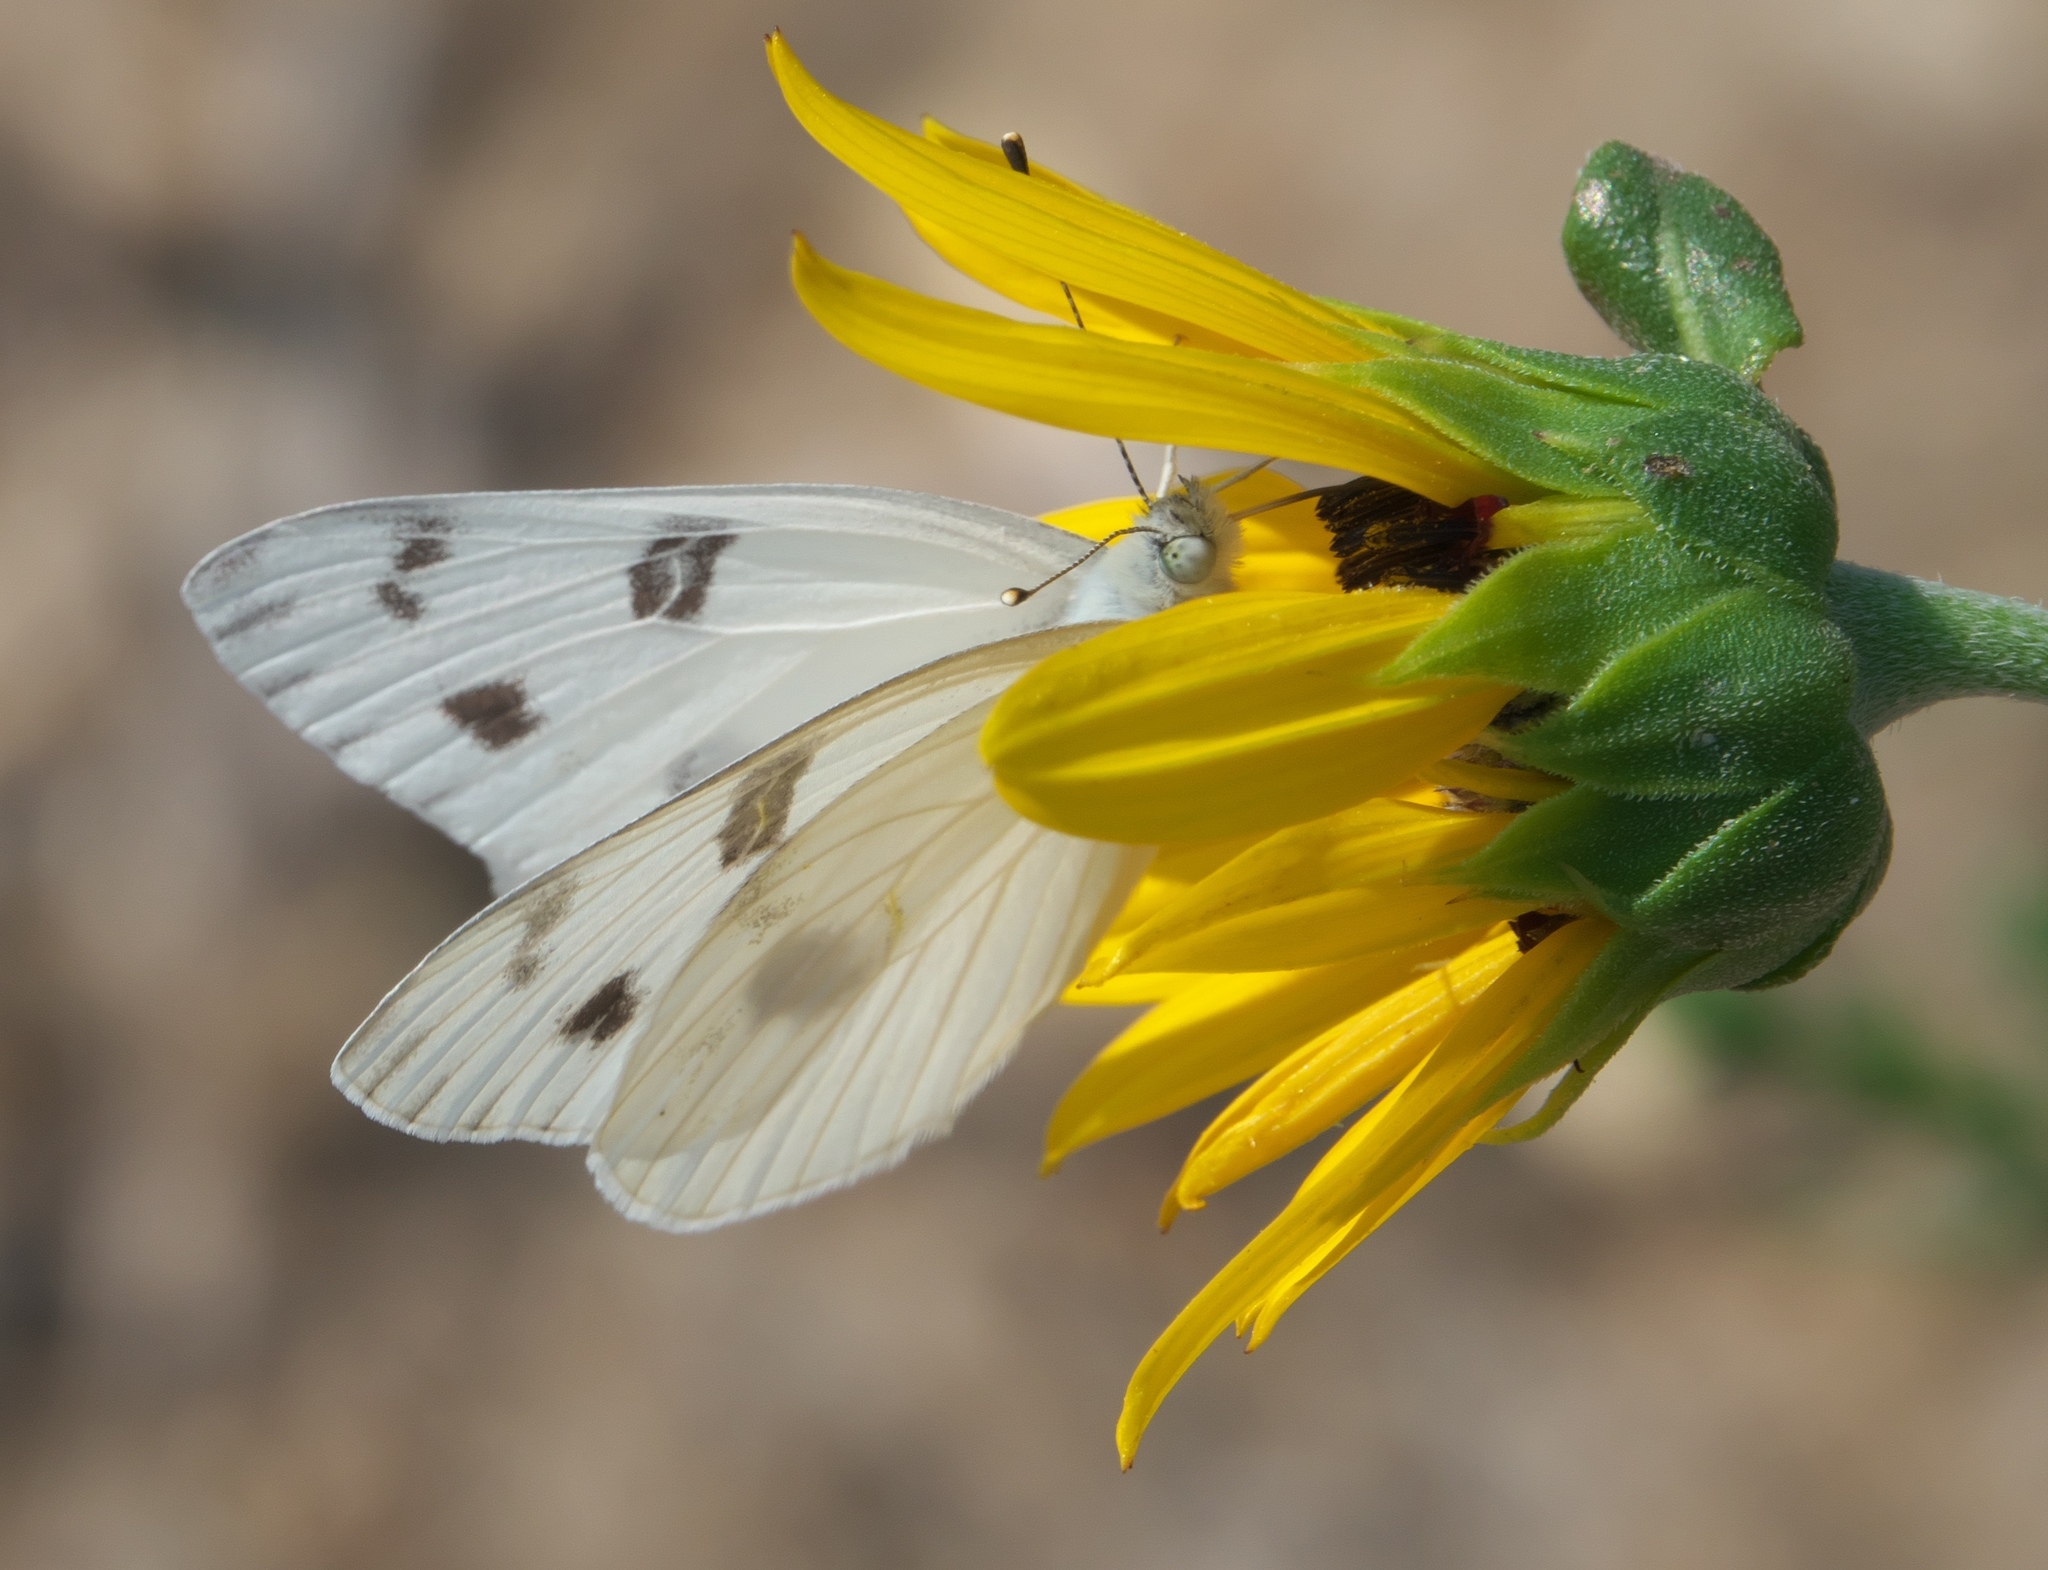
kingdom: Animalia
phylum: Arthropoda
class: Insecta
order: Lepidoptera
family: Pieridae
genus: Pontia
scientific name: Pontia protodice
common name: Checkered white
